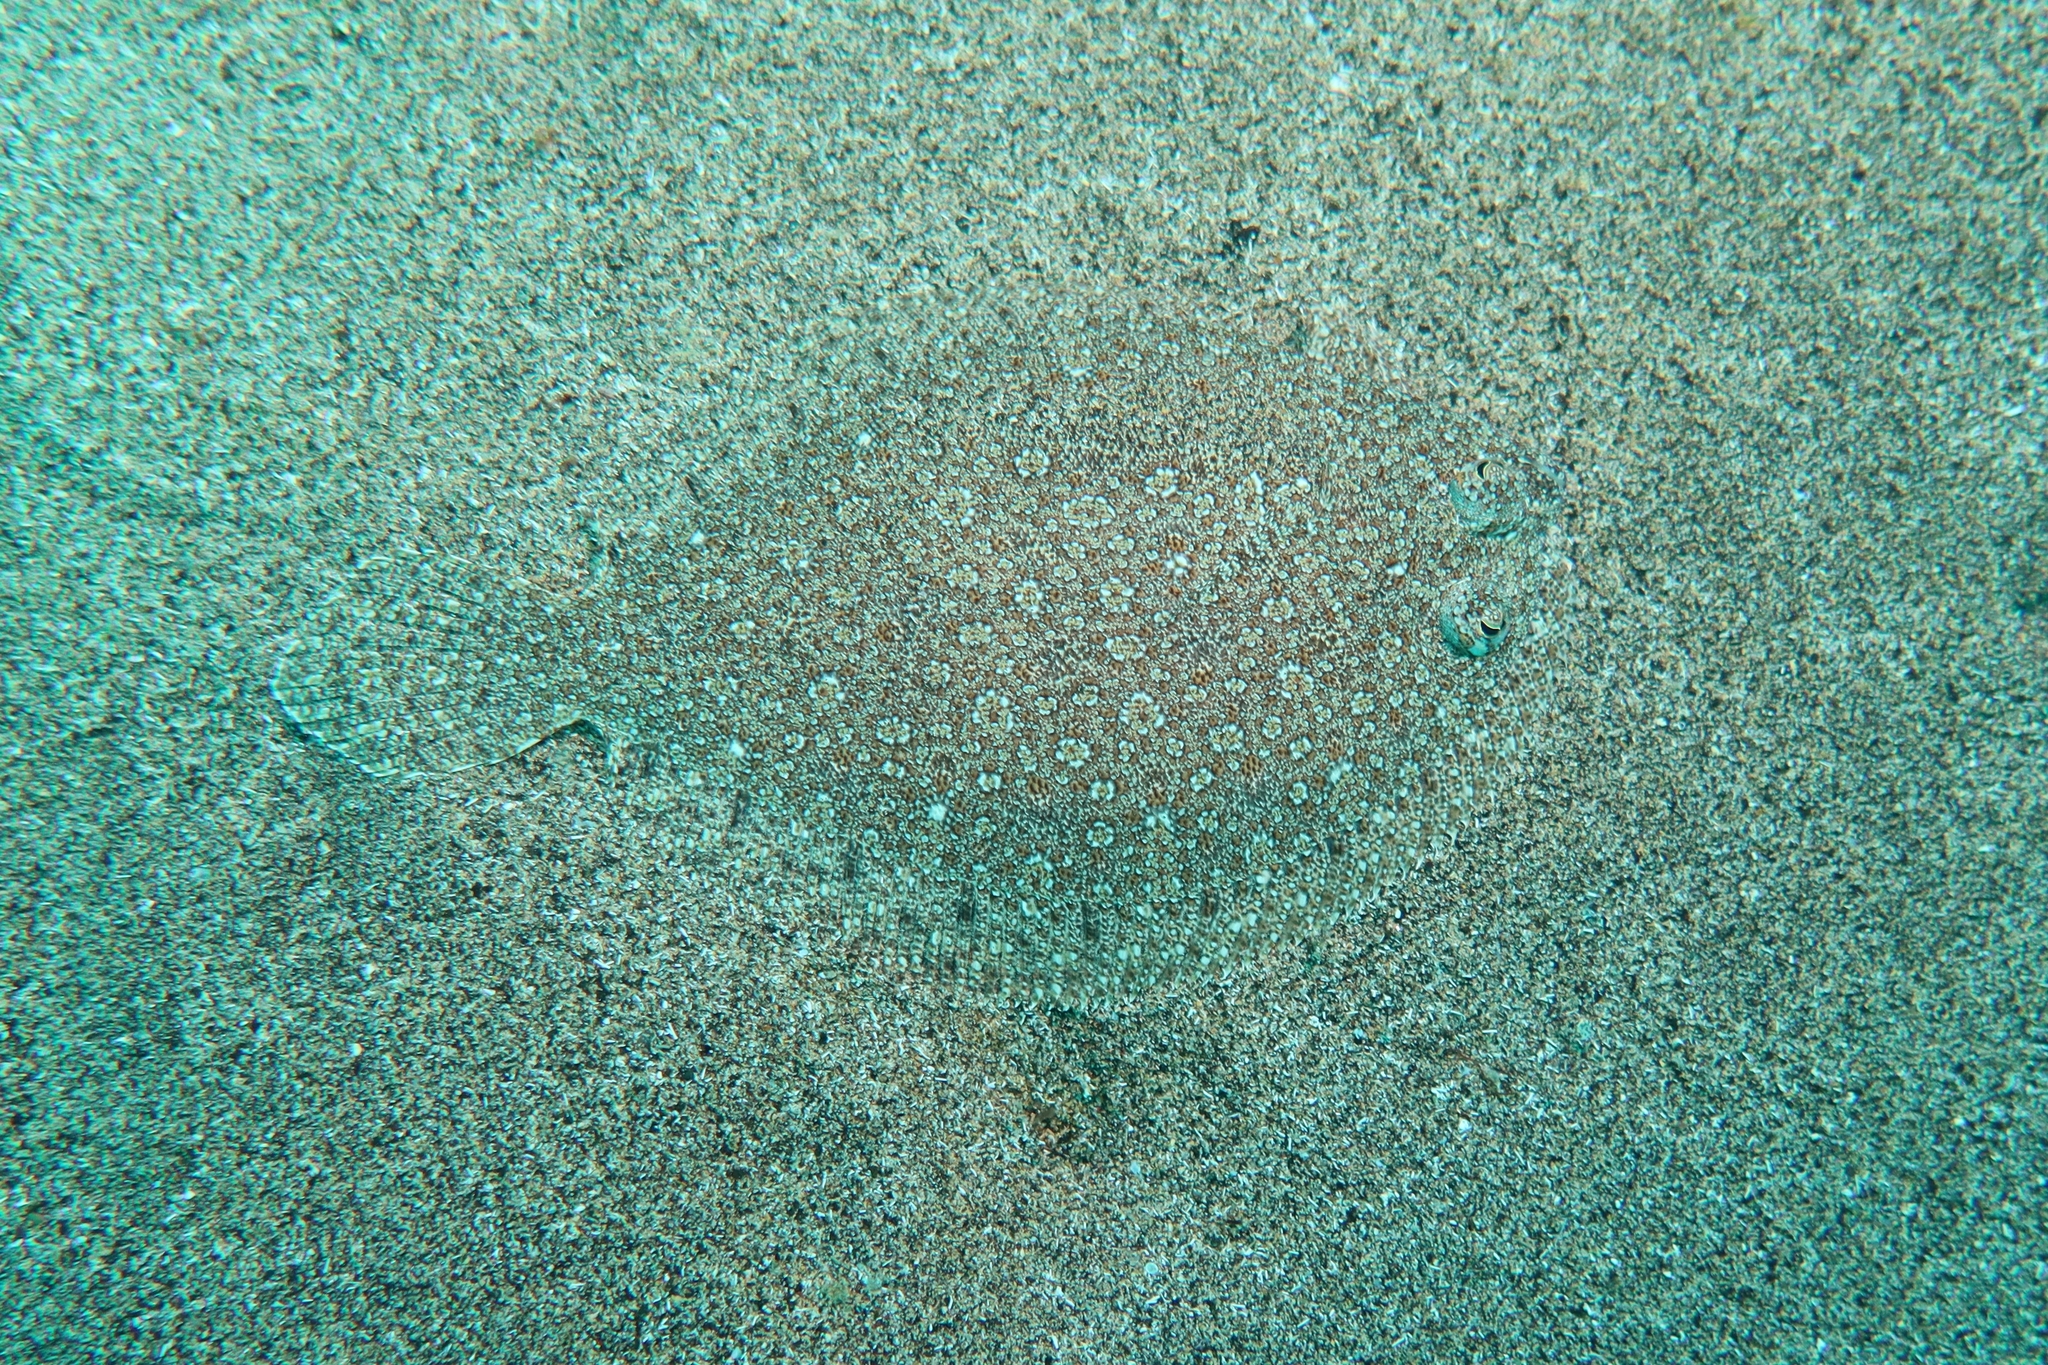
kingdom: Animalia
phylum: Chordata
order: Pleuronectiformes
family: Bothidae
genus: Bothus
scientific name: Bothus podas
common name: Wide-eyed flounder
